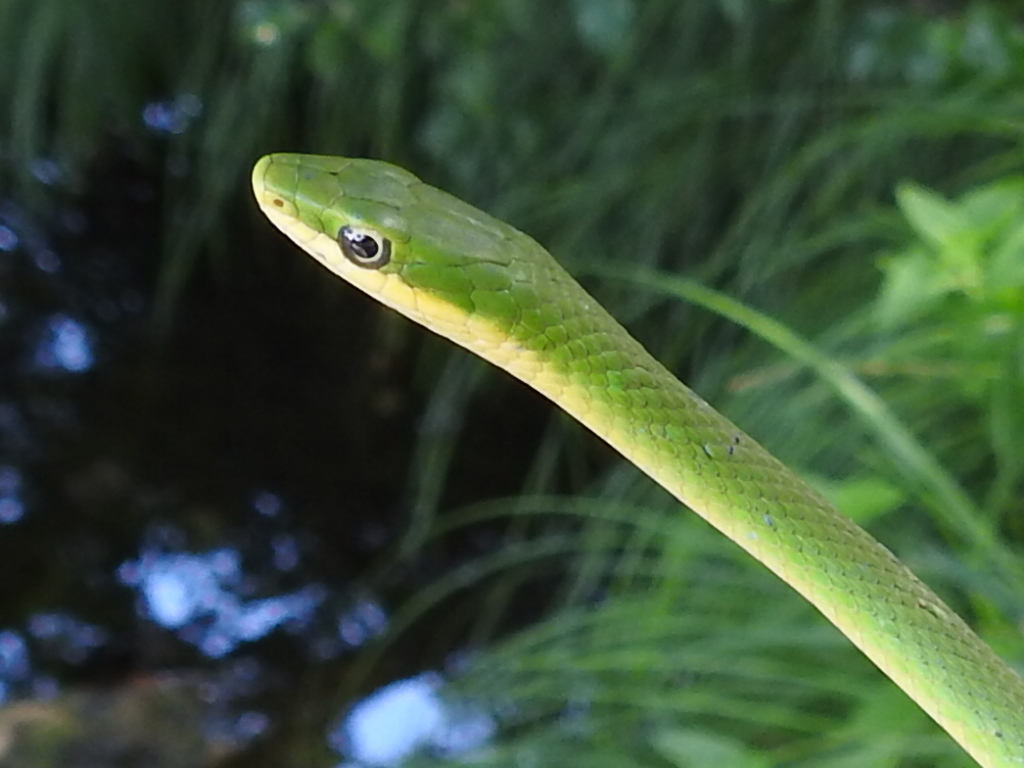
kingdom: Animalia
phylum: Chordata
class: Squamata
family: Colubridae
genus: Opheodrys
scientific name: Opheodrys aestivus
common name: Rough greensnake
